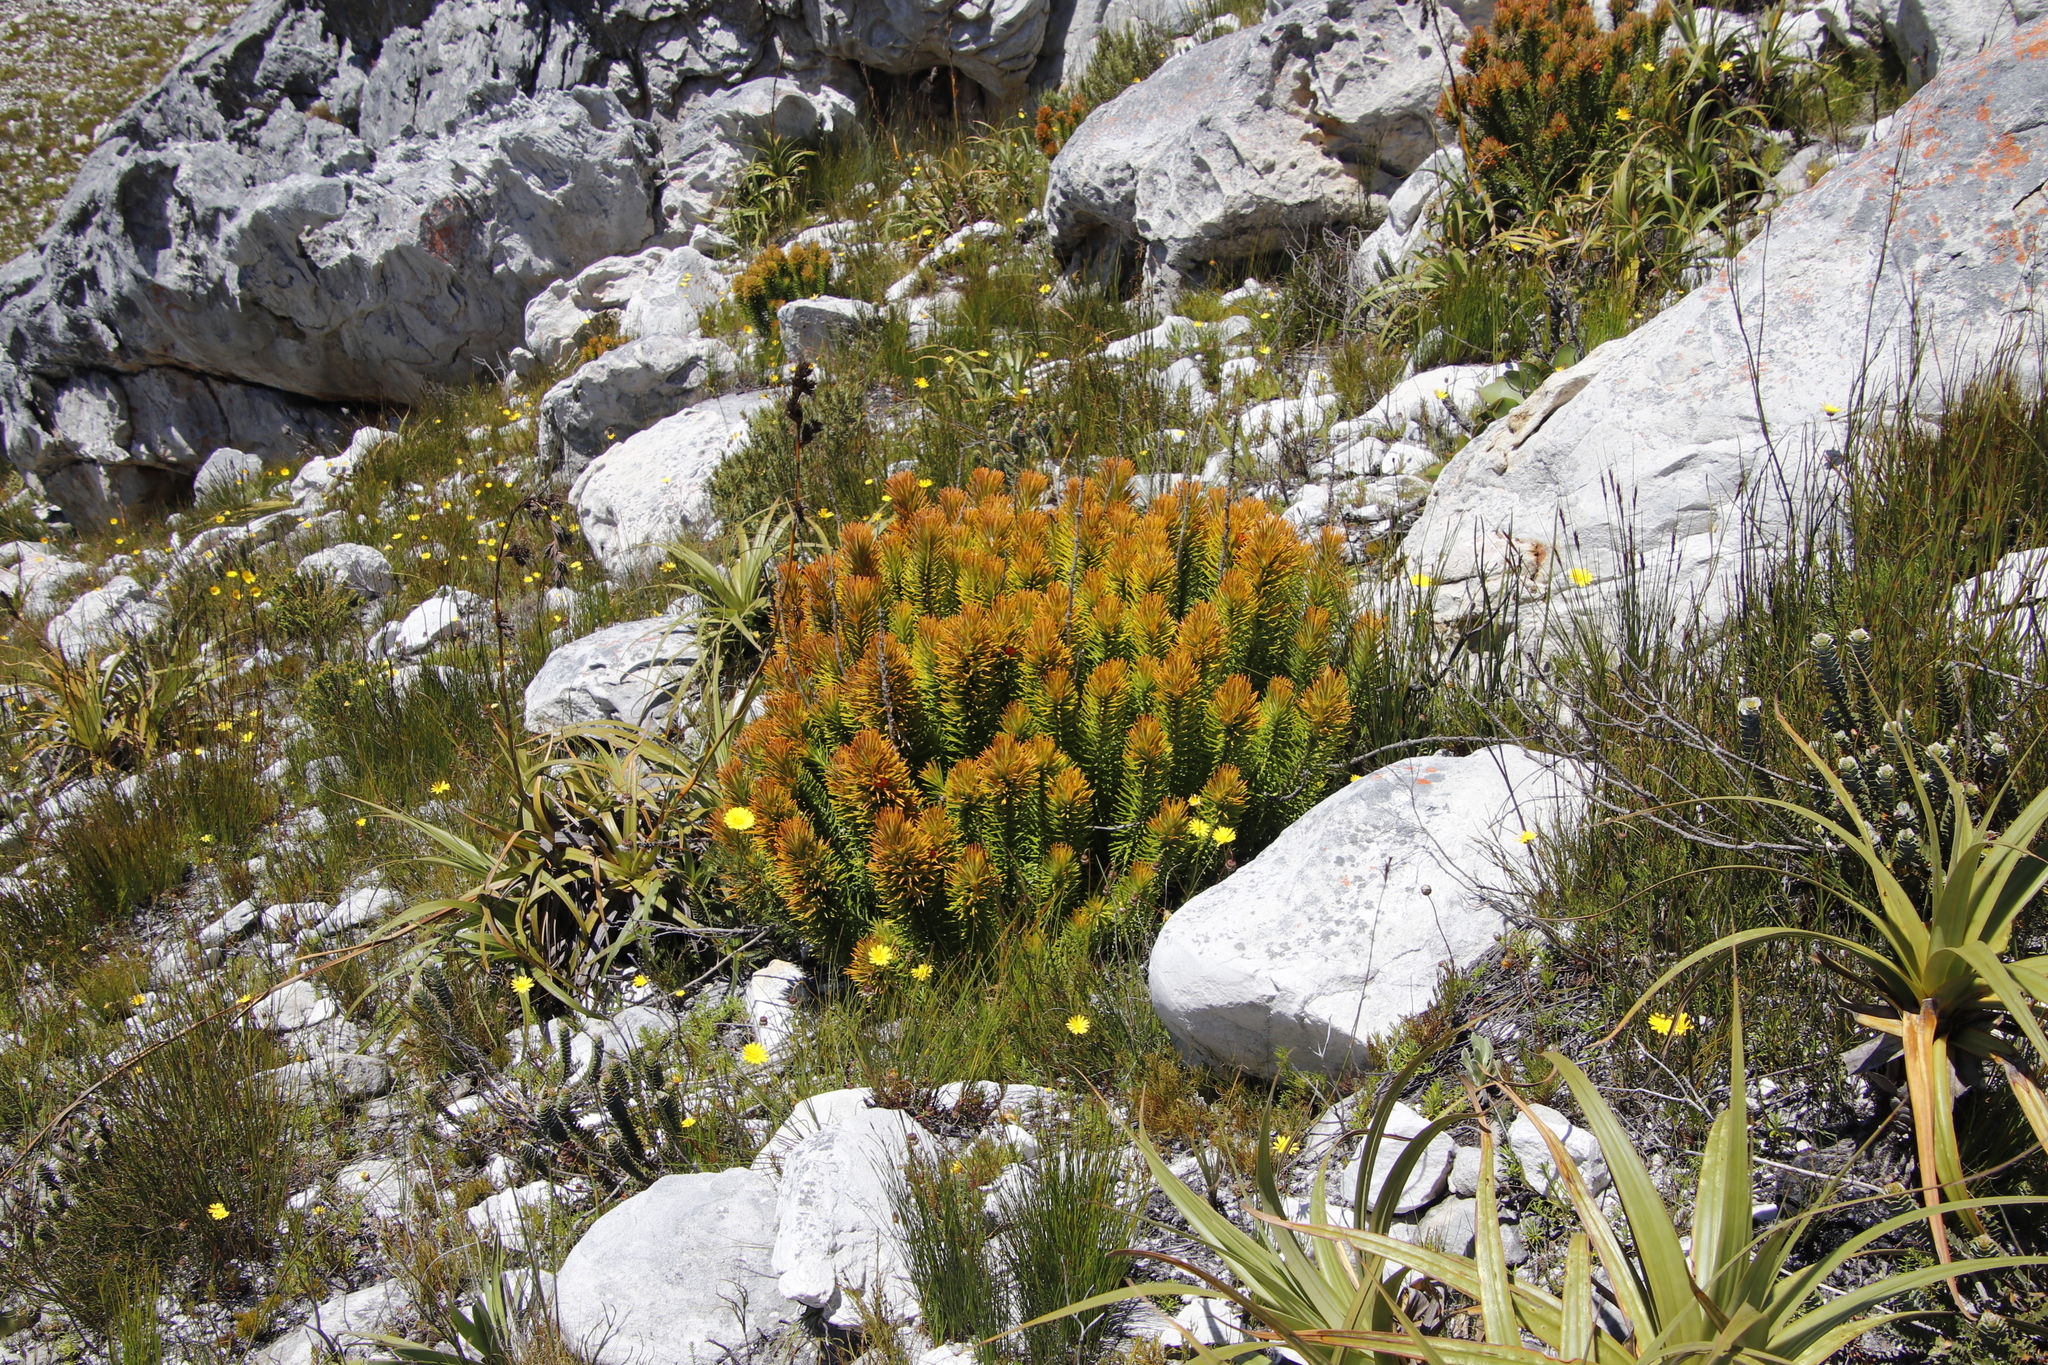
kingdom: Plantae
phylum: Tracheophyta
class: Magnoliopsida
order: Lamiales
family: Stilbaceae
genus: Retzia
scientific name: Retzia capensis
